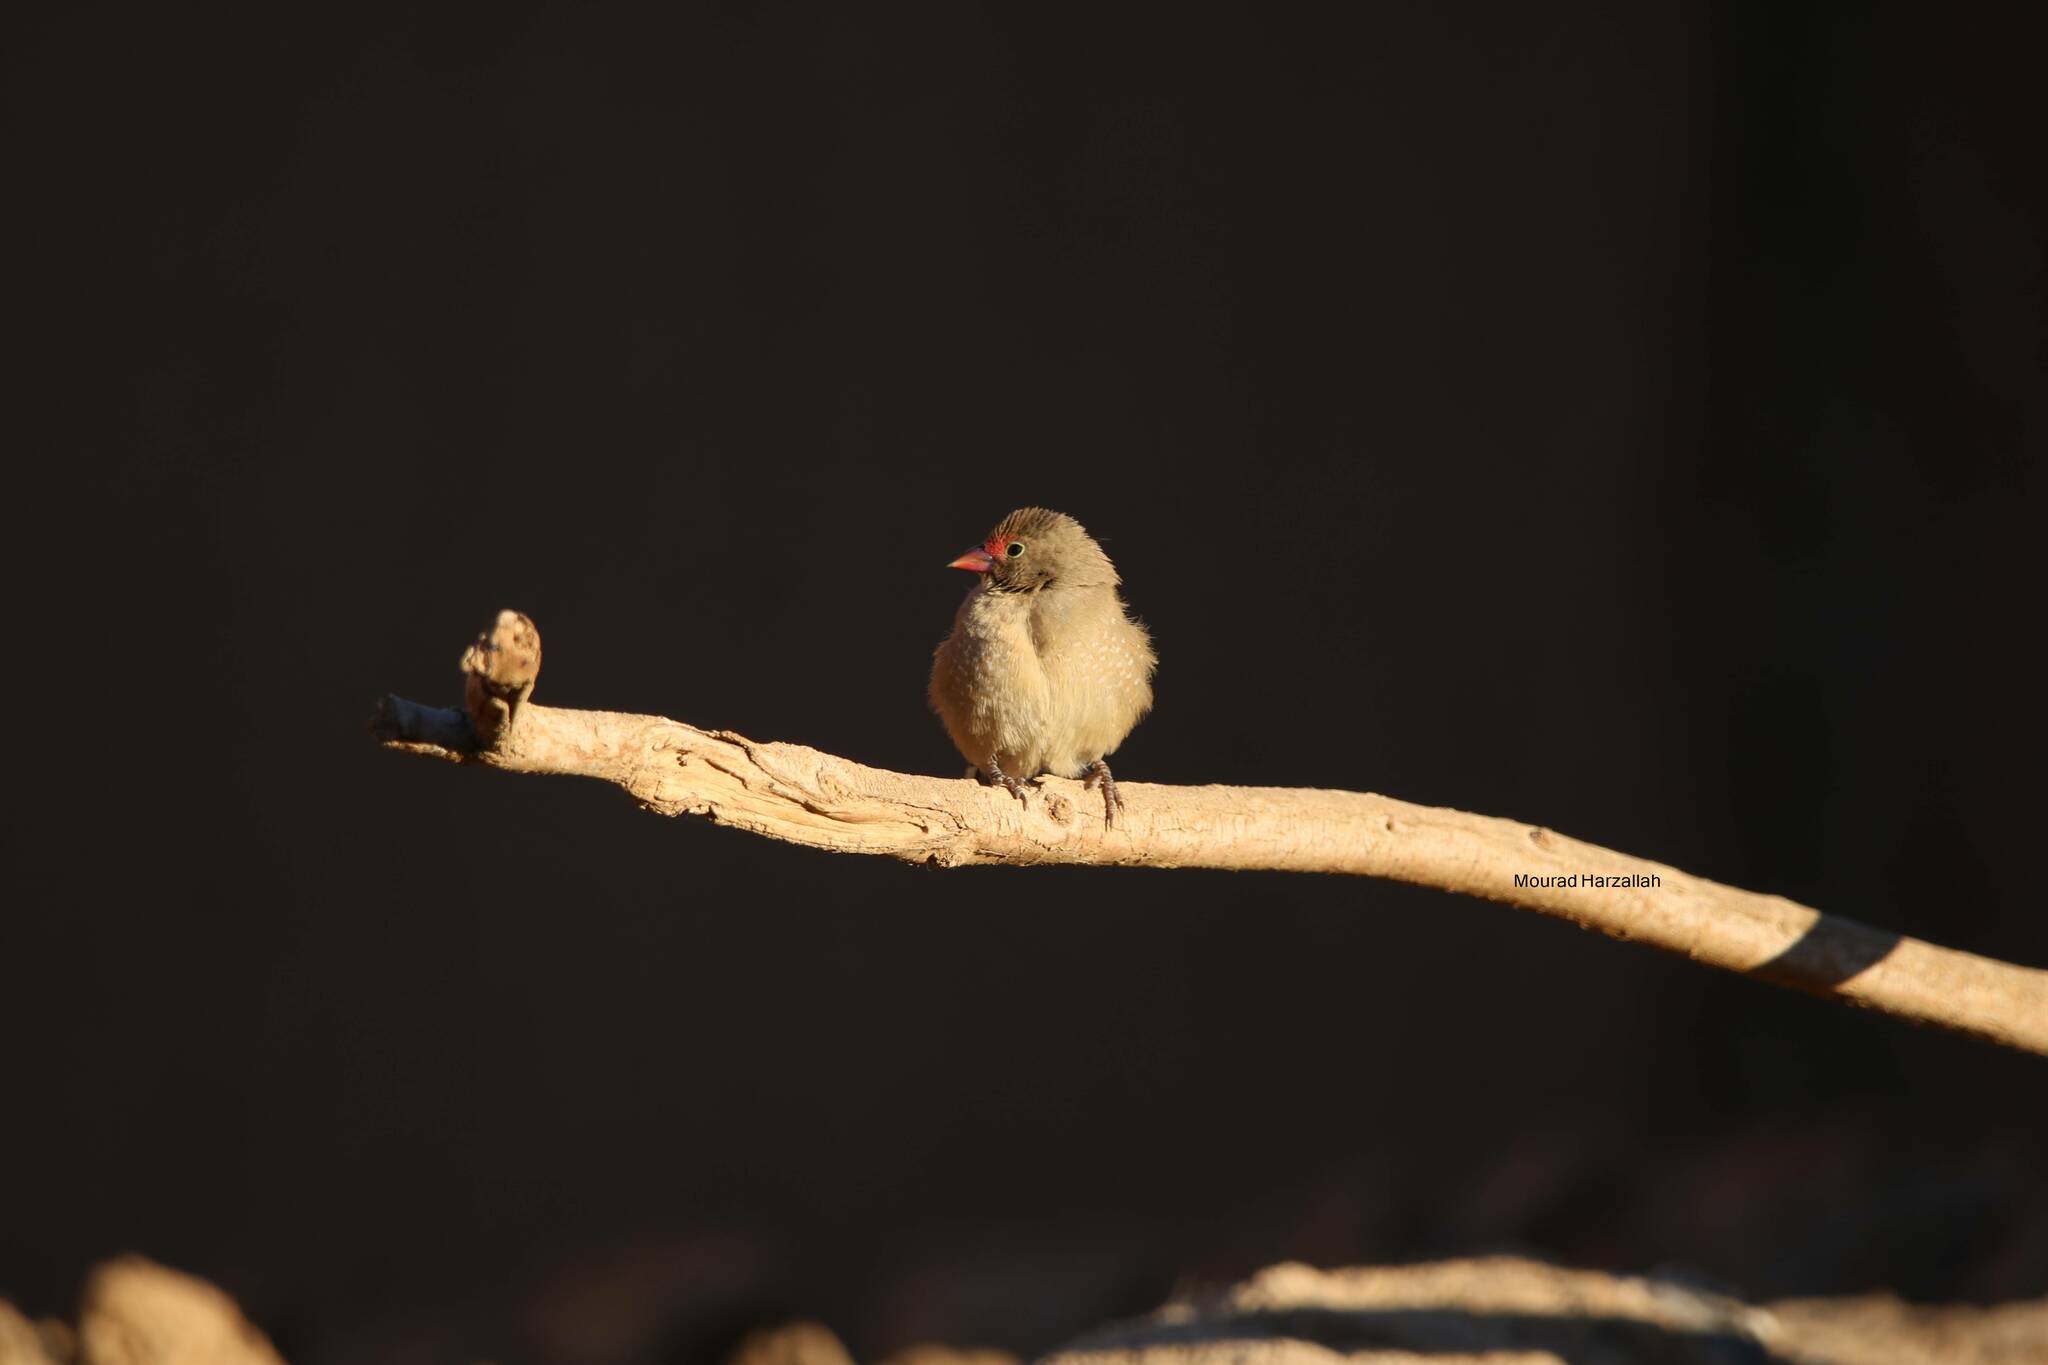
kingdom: Animalia
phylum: Chordata
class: Aves
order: Passeriformes
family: Estrildidae
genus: Lagonosticta
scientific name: Lagonosticta senegala
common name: Red-billed firefinch
